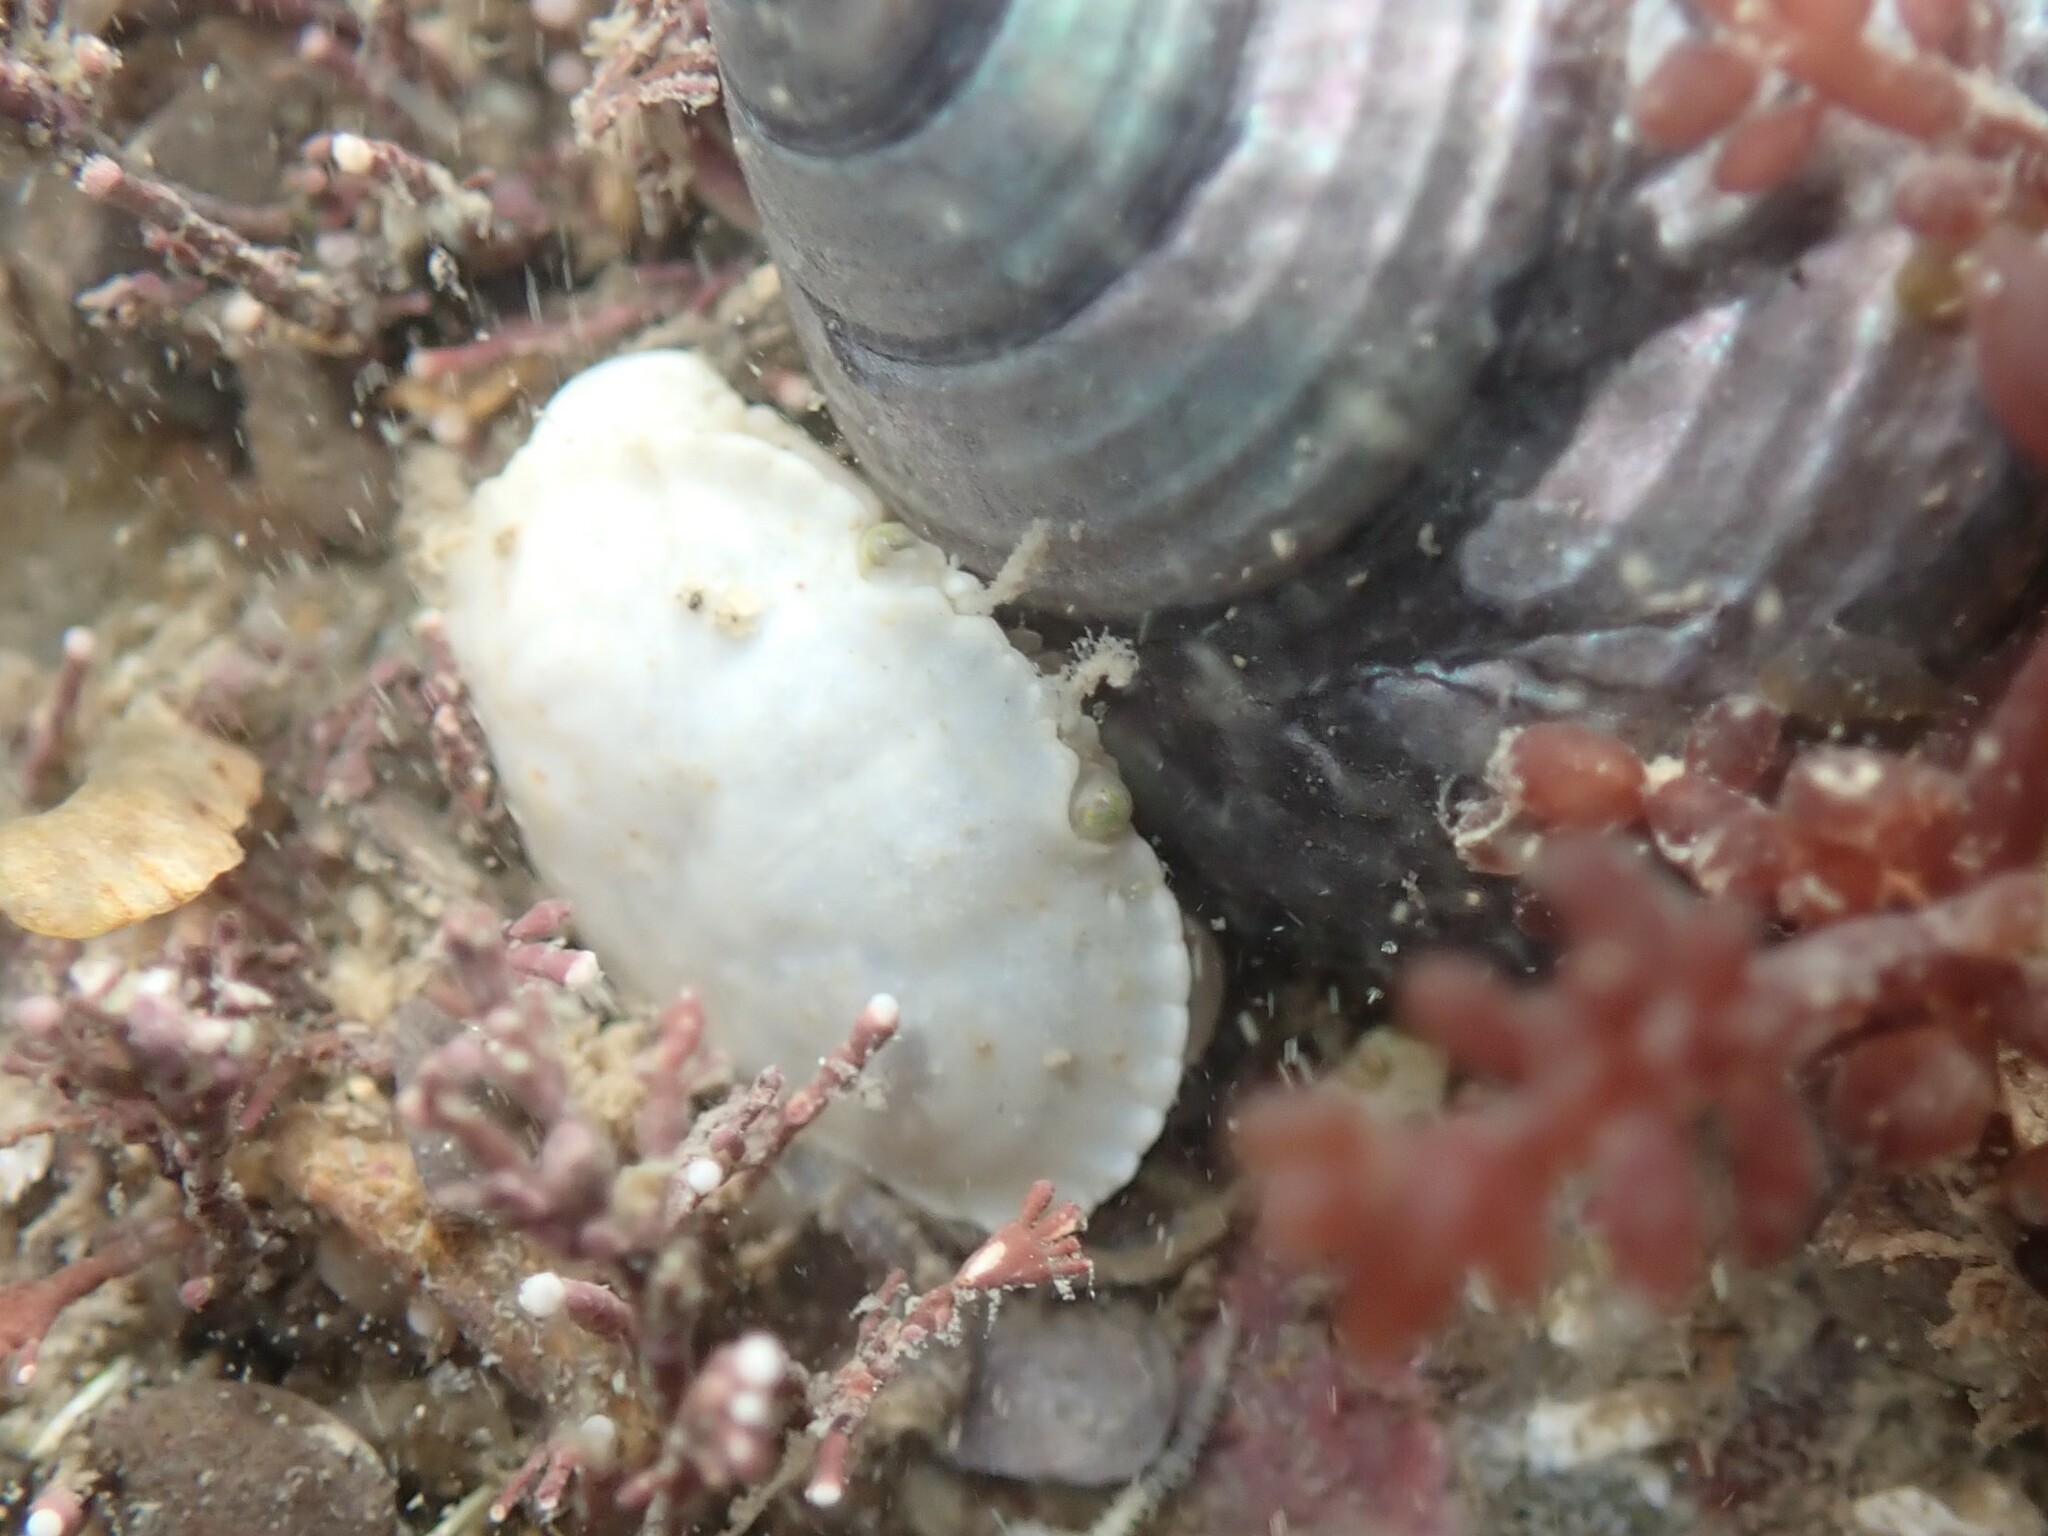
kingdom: Animalia
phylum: Arthropoda
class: Malacostraca
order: Decapoda
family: Cancridae
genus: Cancer
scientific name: Cancer pagurus
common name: Edible crab
